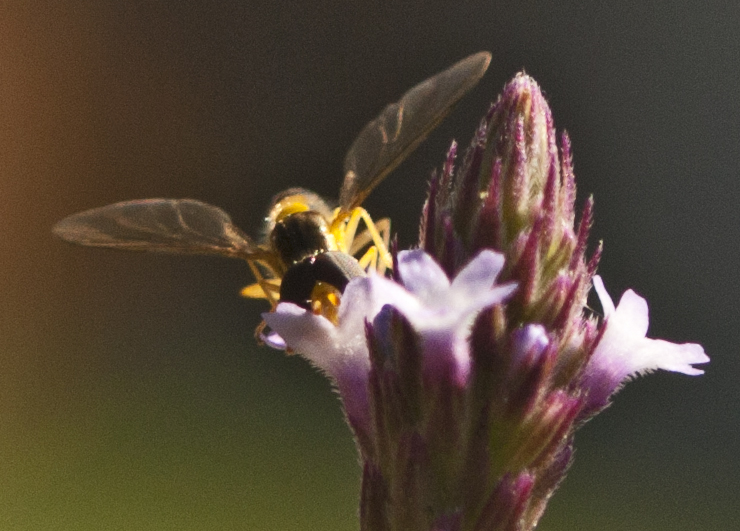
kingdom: Animalia
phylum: Arthropoda
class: Insecta
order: Diptera
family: Syrphidae
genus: Sphaerophoria
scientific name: Sphaerophoria macrogaster
